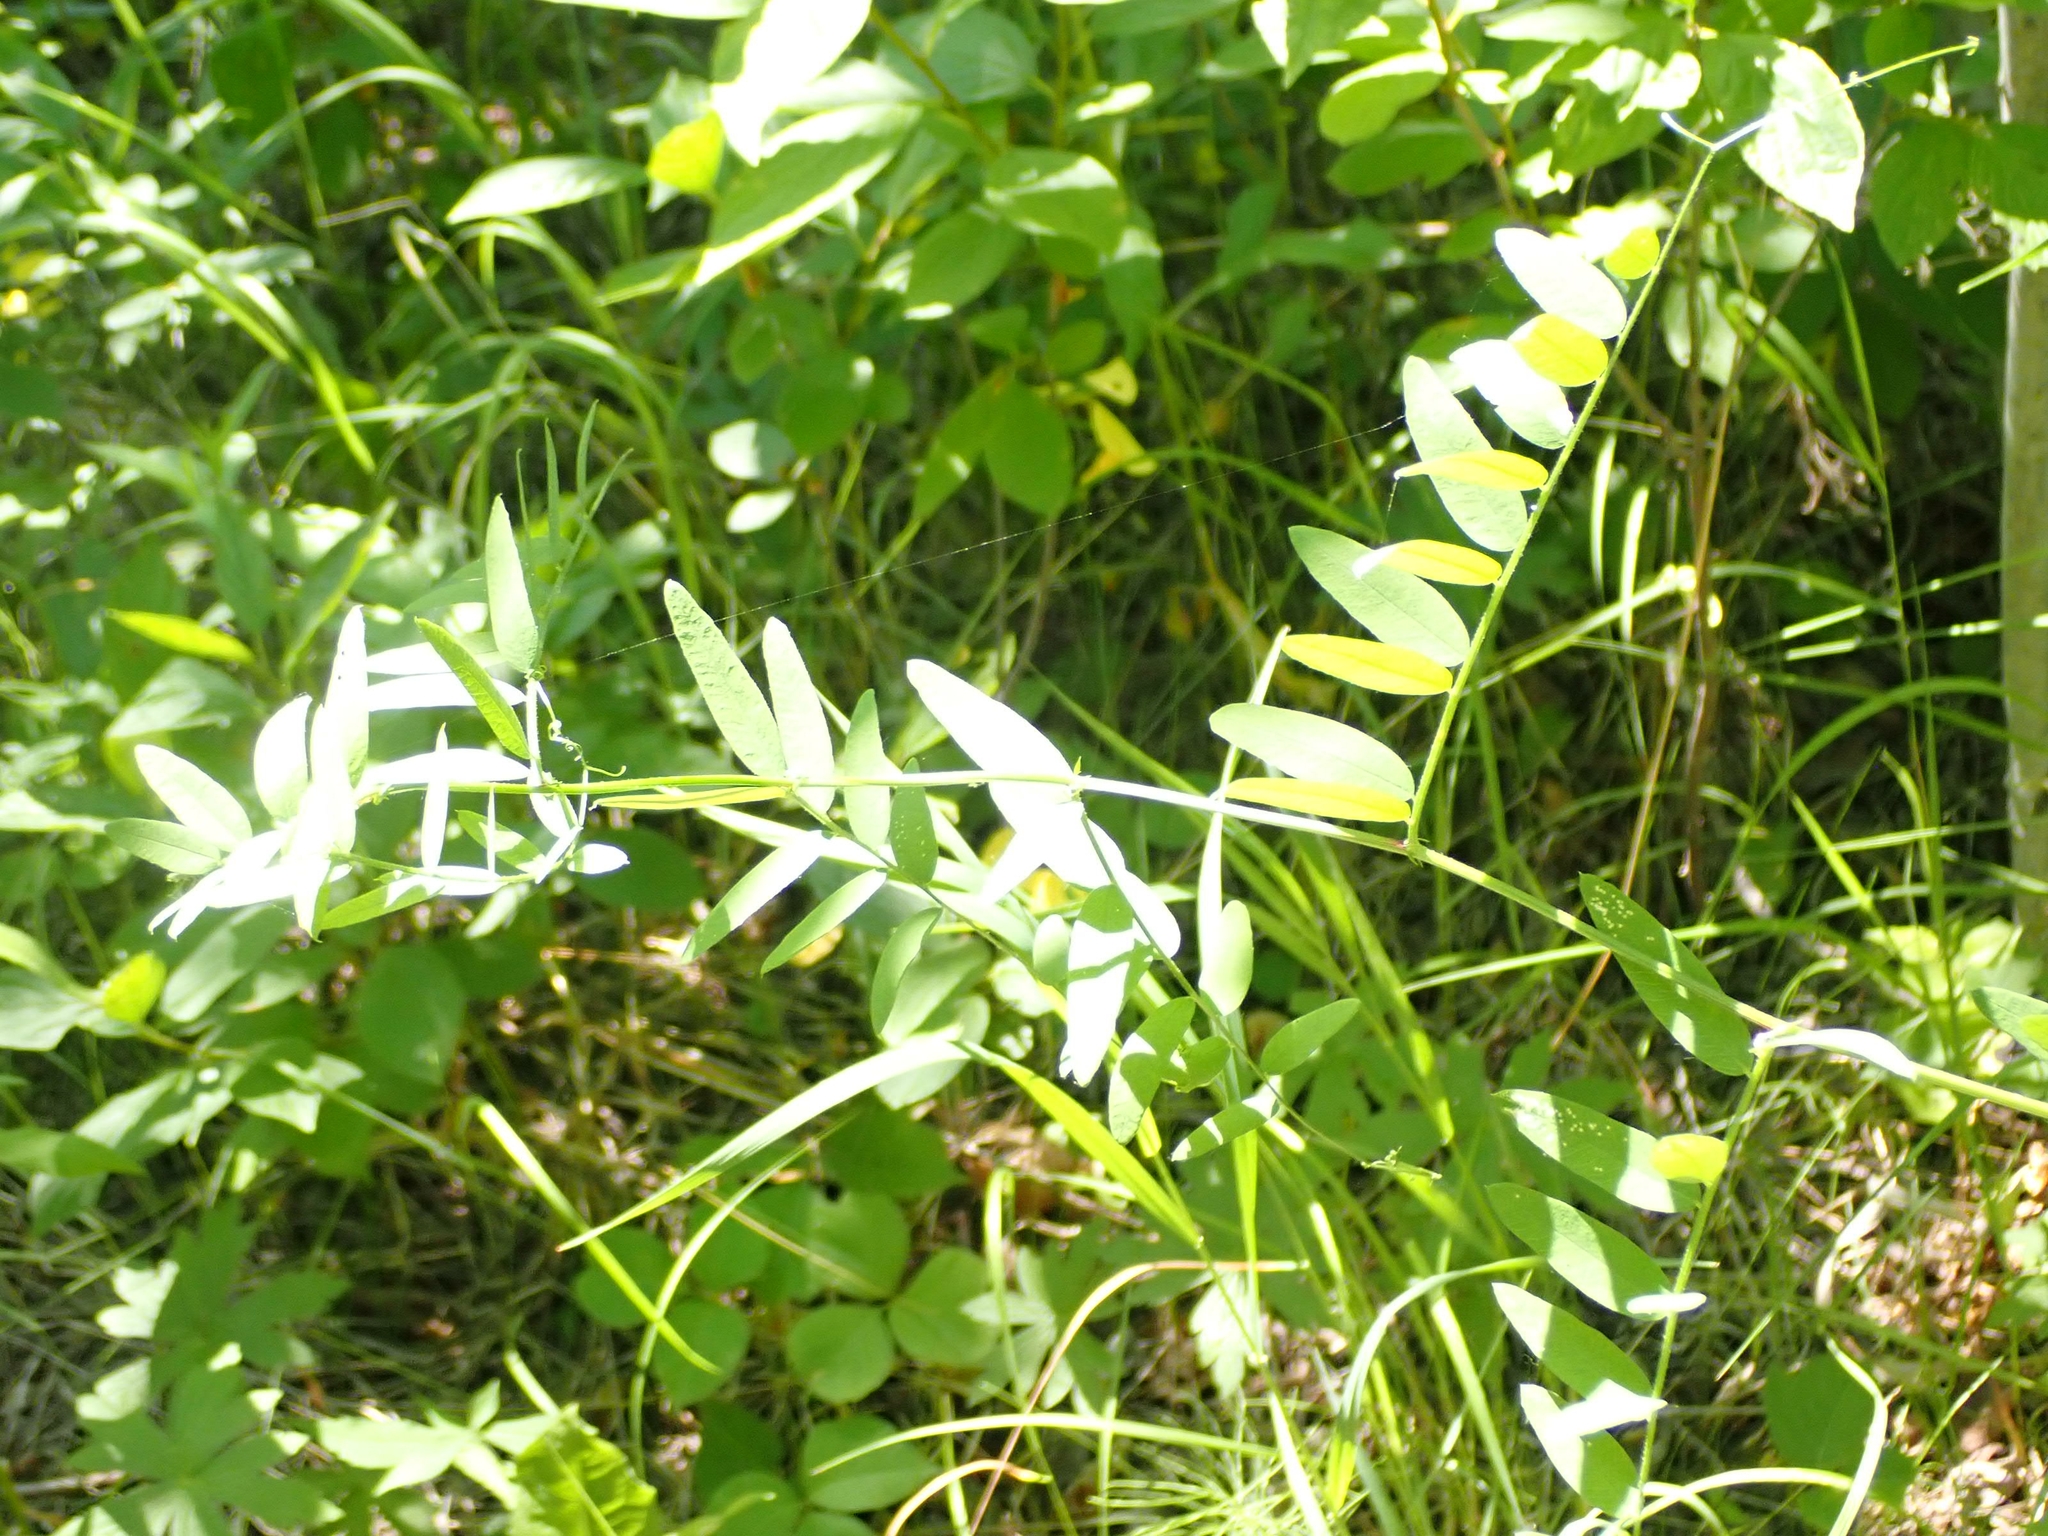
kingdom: Plantae
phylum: Tracheophyta
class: Magnoliopsida
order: Fabales
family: Fabaceae
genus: Vicia
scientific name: Vicia americana
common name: American vetch
